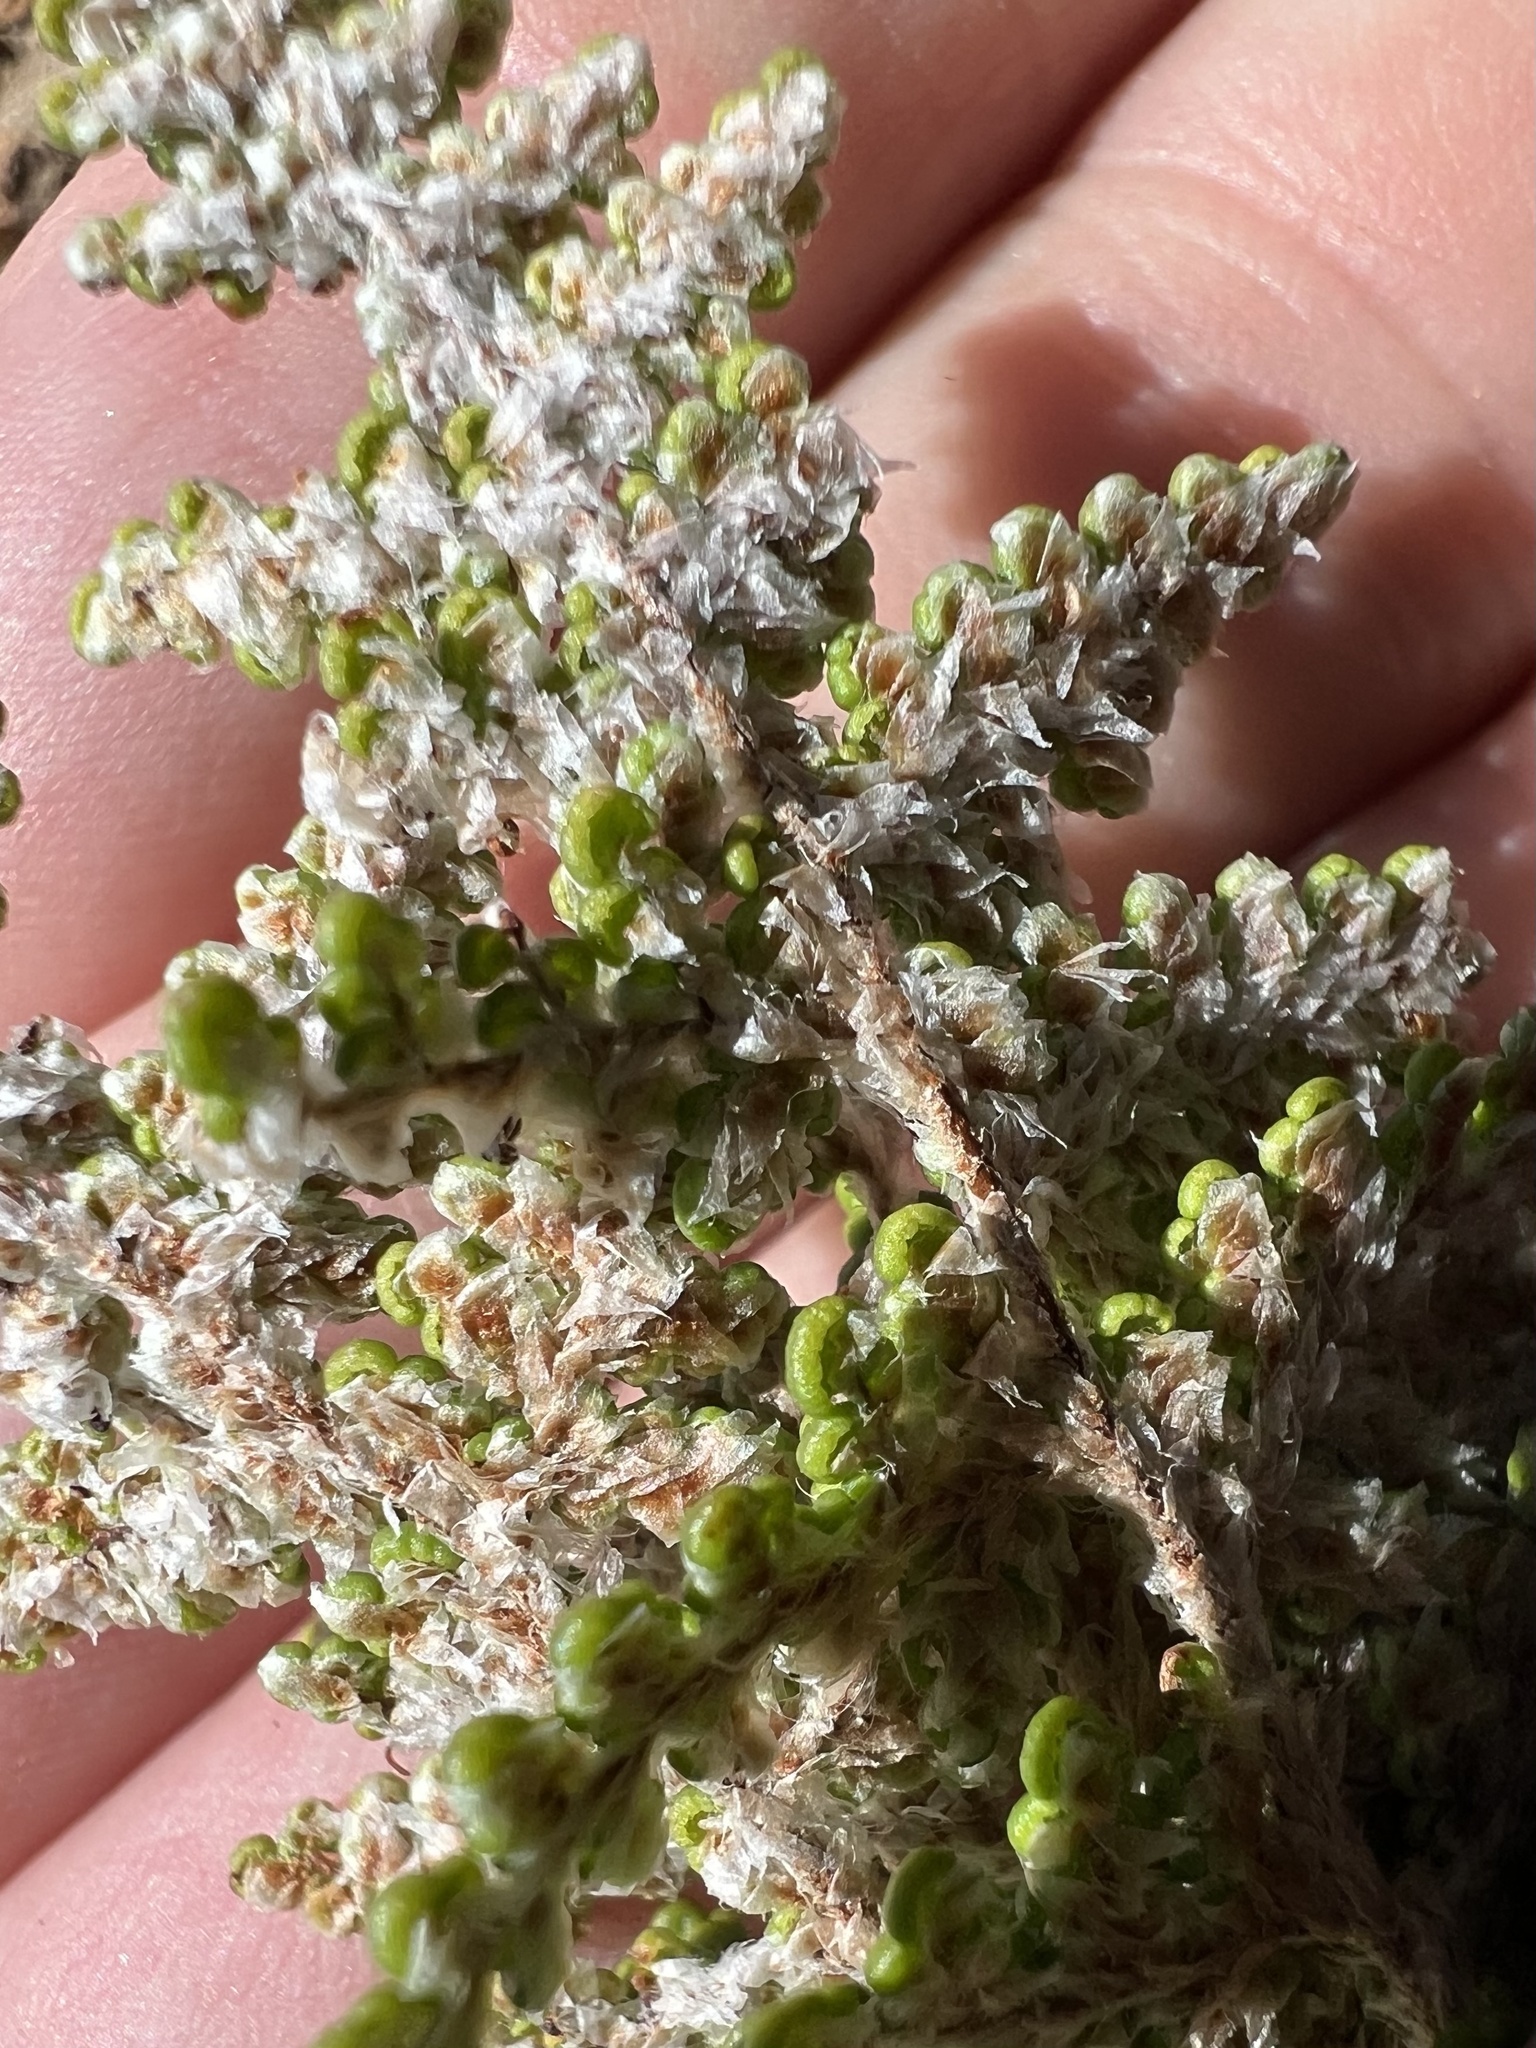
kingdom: Plantae
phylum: Tracheophyta
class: Polypodiopsida
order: Polypodiales
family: Pteridaceae
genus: Myriopteris
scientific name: Myriopteris covillei
